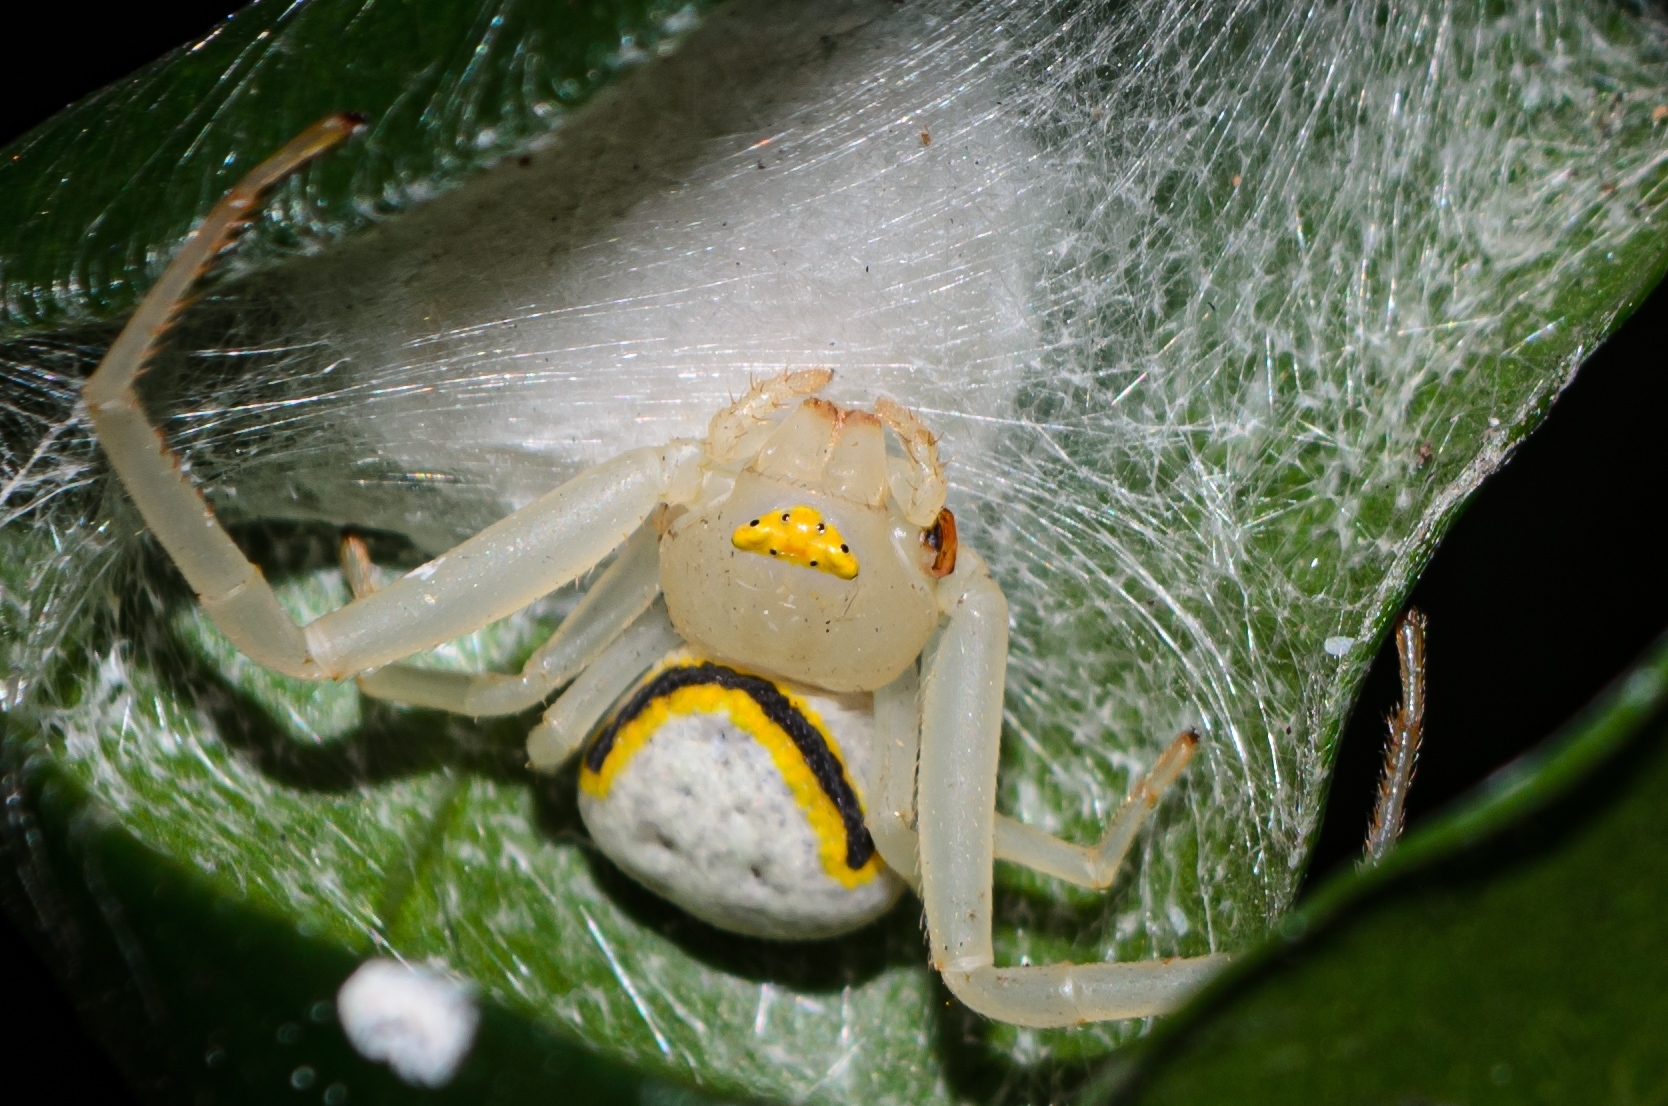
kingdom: Animalia
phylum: Arthropoda
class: Arachnida
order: Araneae
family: Thomisidae
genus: Misumenops
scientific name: Misumenops callinurus
